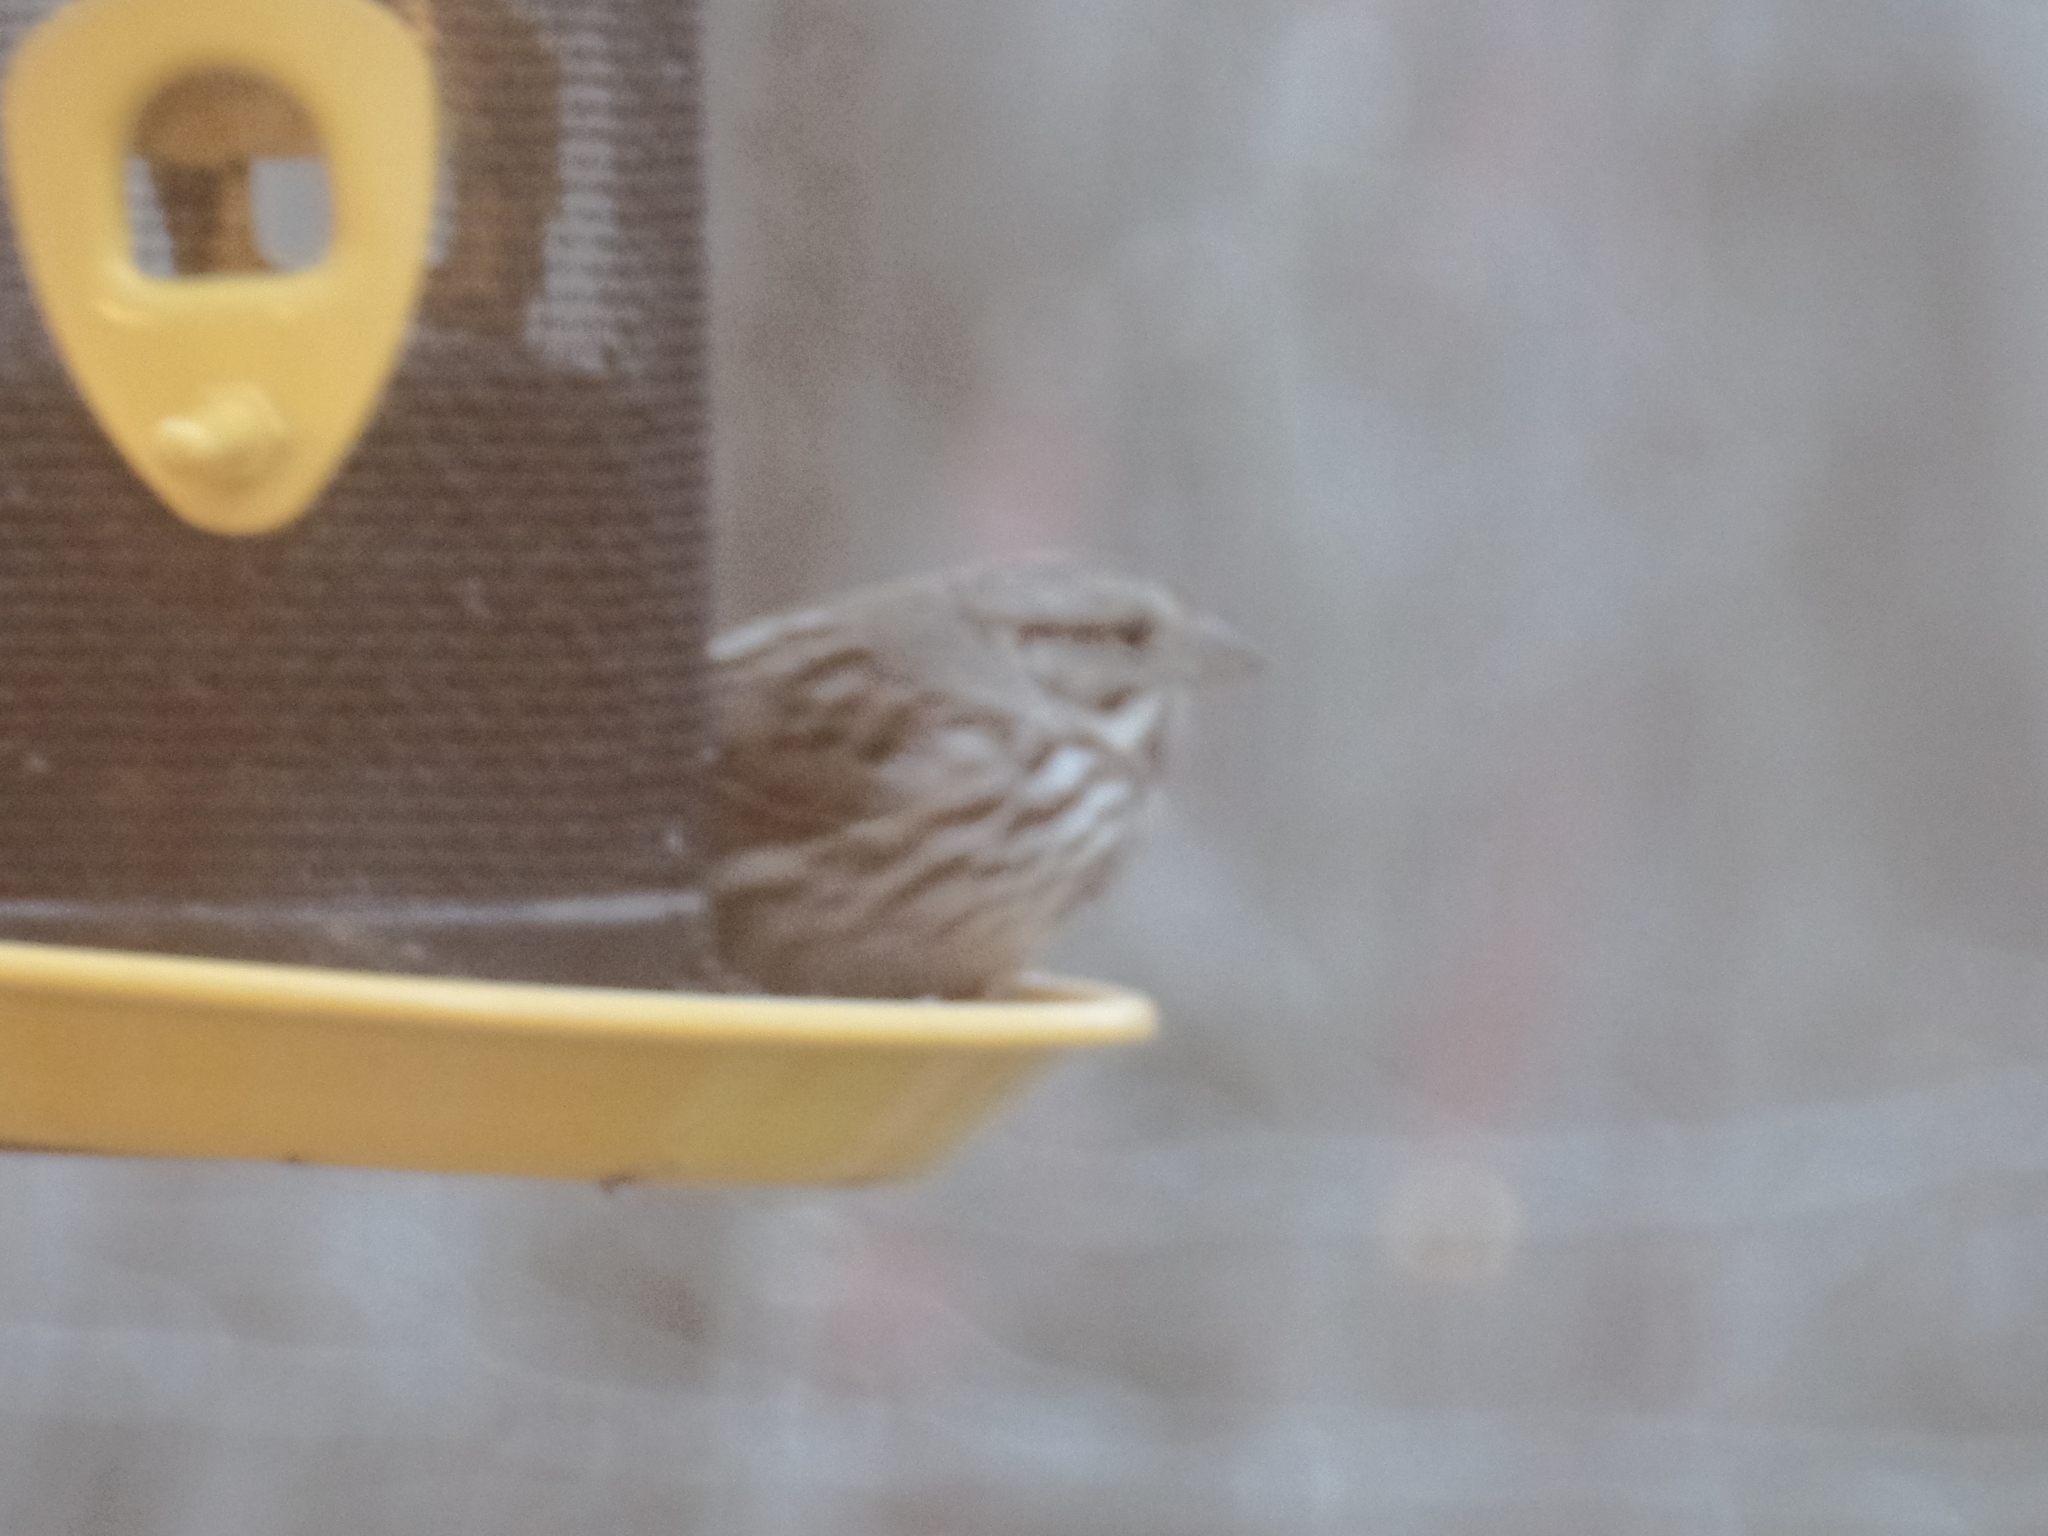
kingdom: Animalia
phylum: Chordata
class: Aves
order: Passeriformes
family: Passerellidae
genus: Melospiza
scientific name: Melospiza melodia
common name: Song sparrow
